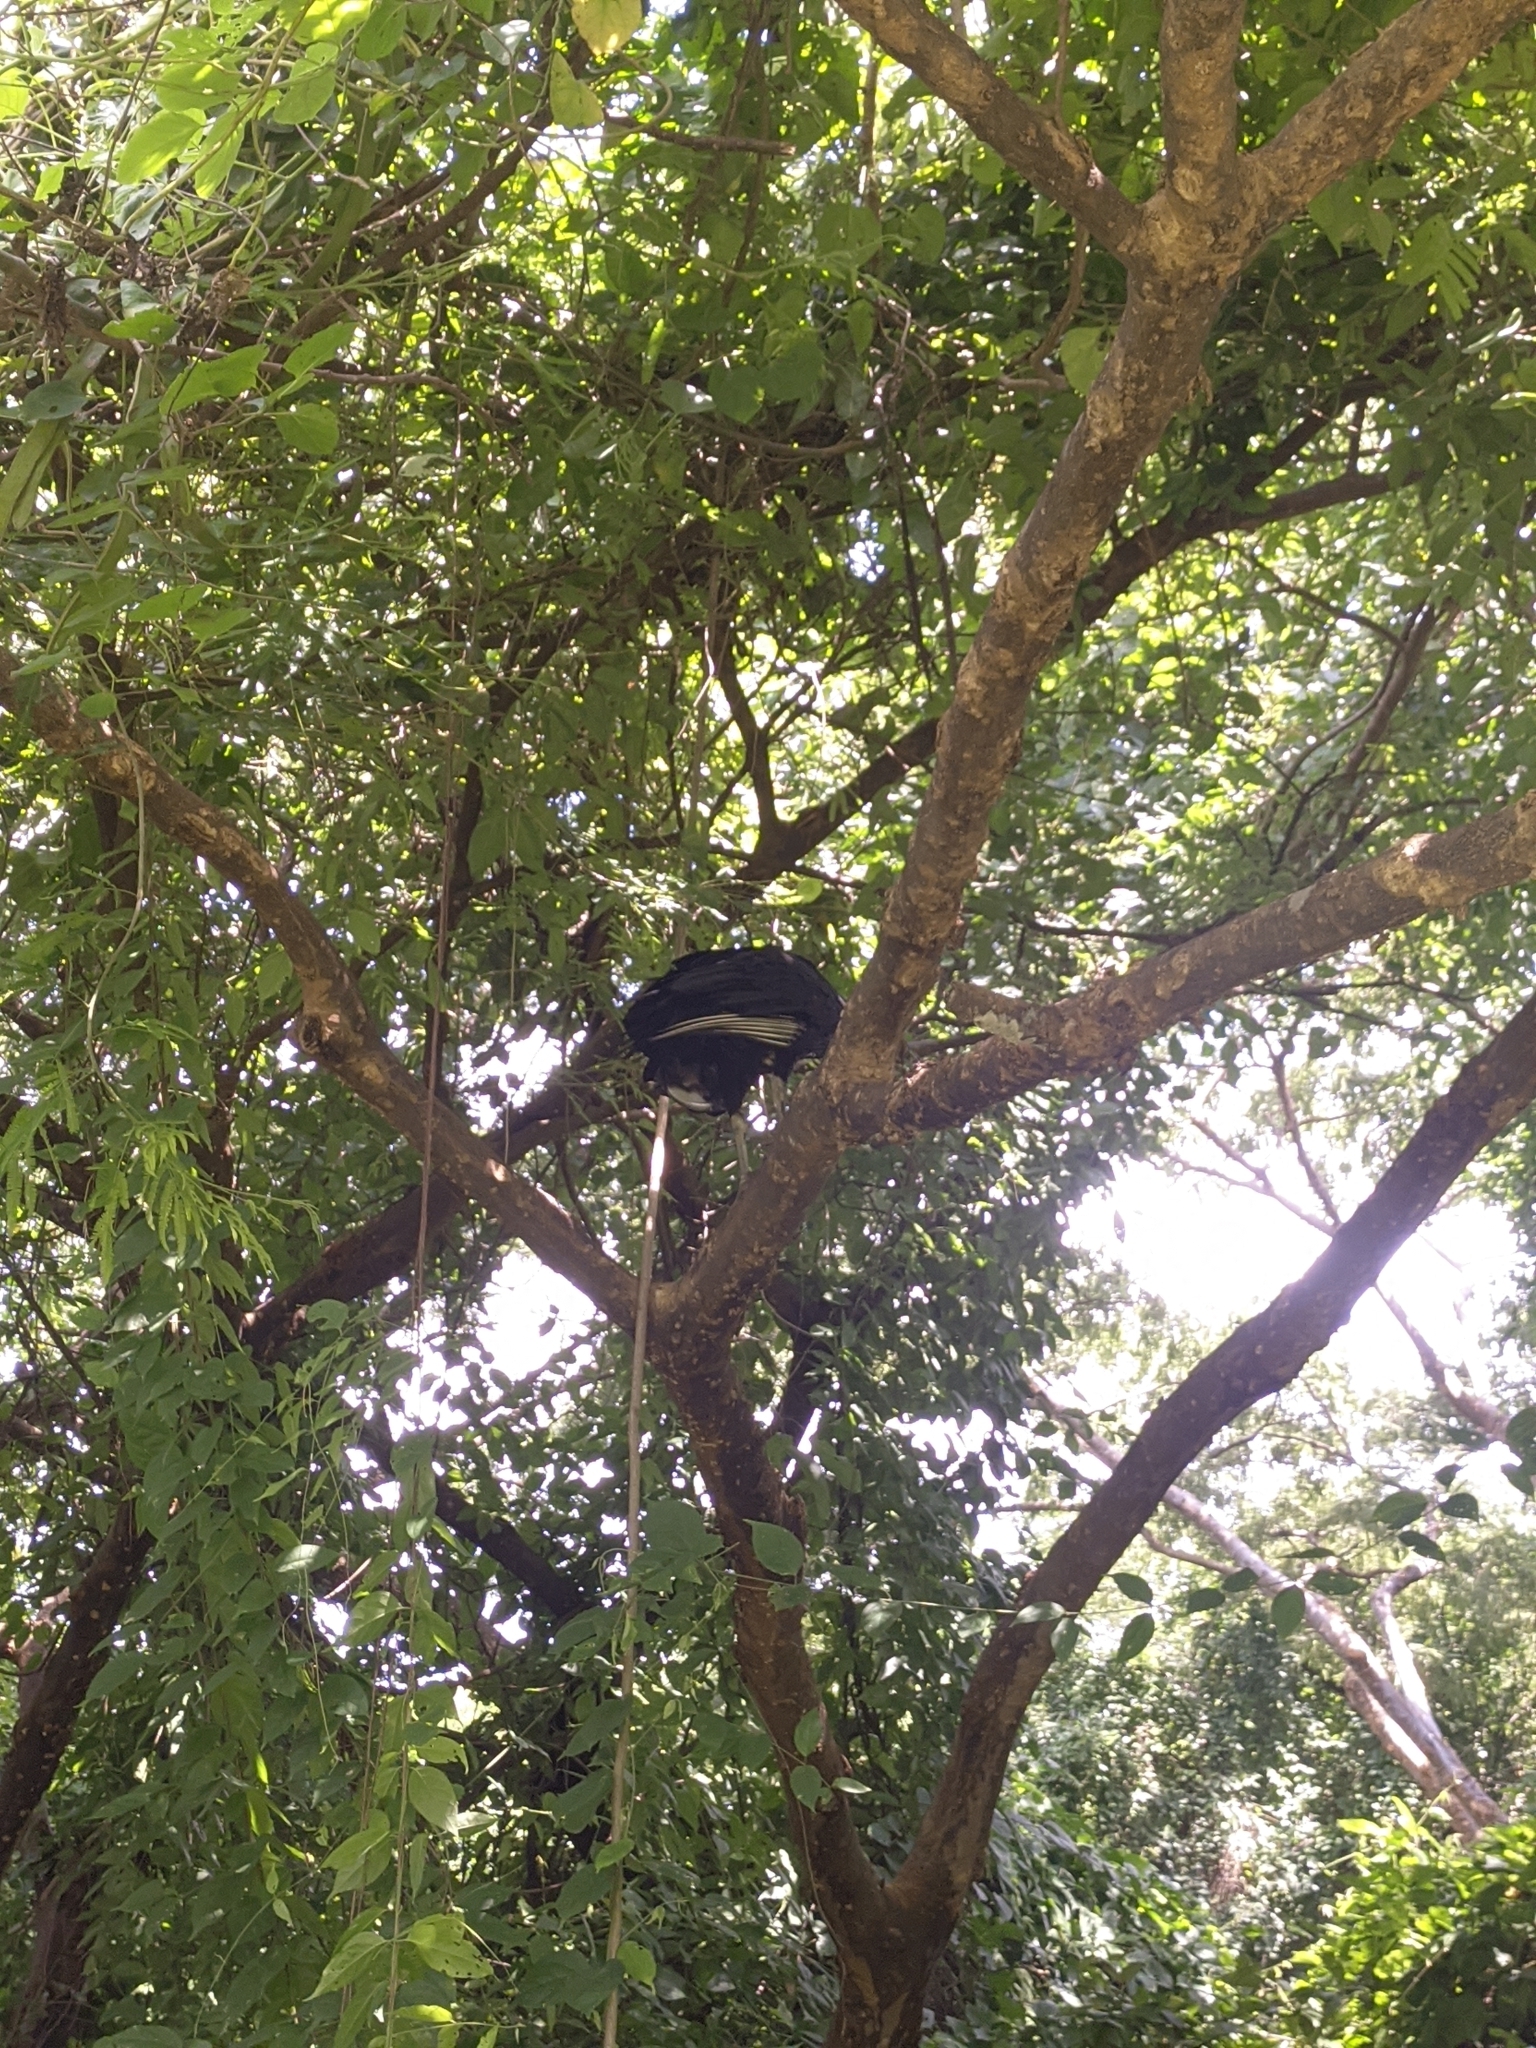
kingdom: Animalia
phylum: Chordata
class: Aves
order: Accipitriformes
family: Cathartidae
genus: Coragyps
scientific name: Coragyps atratus
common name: Black vulture
